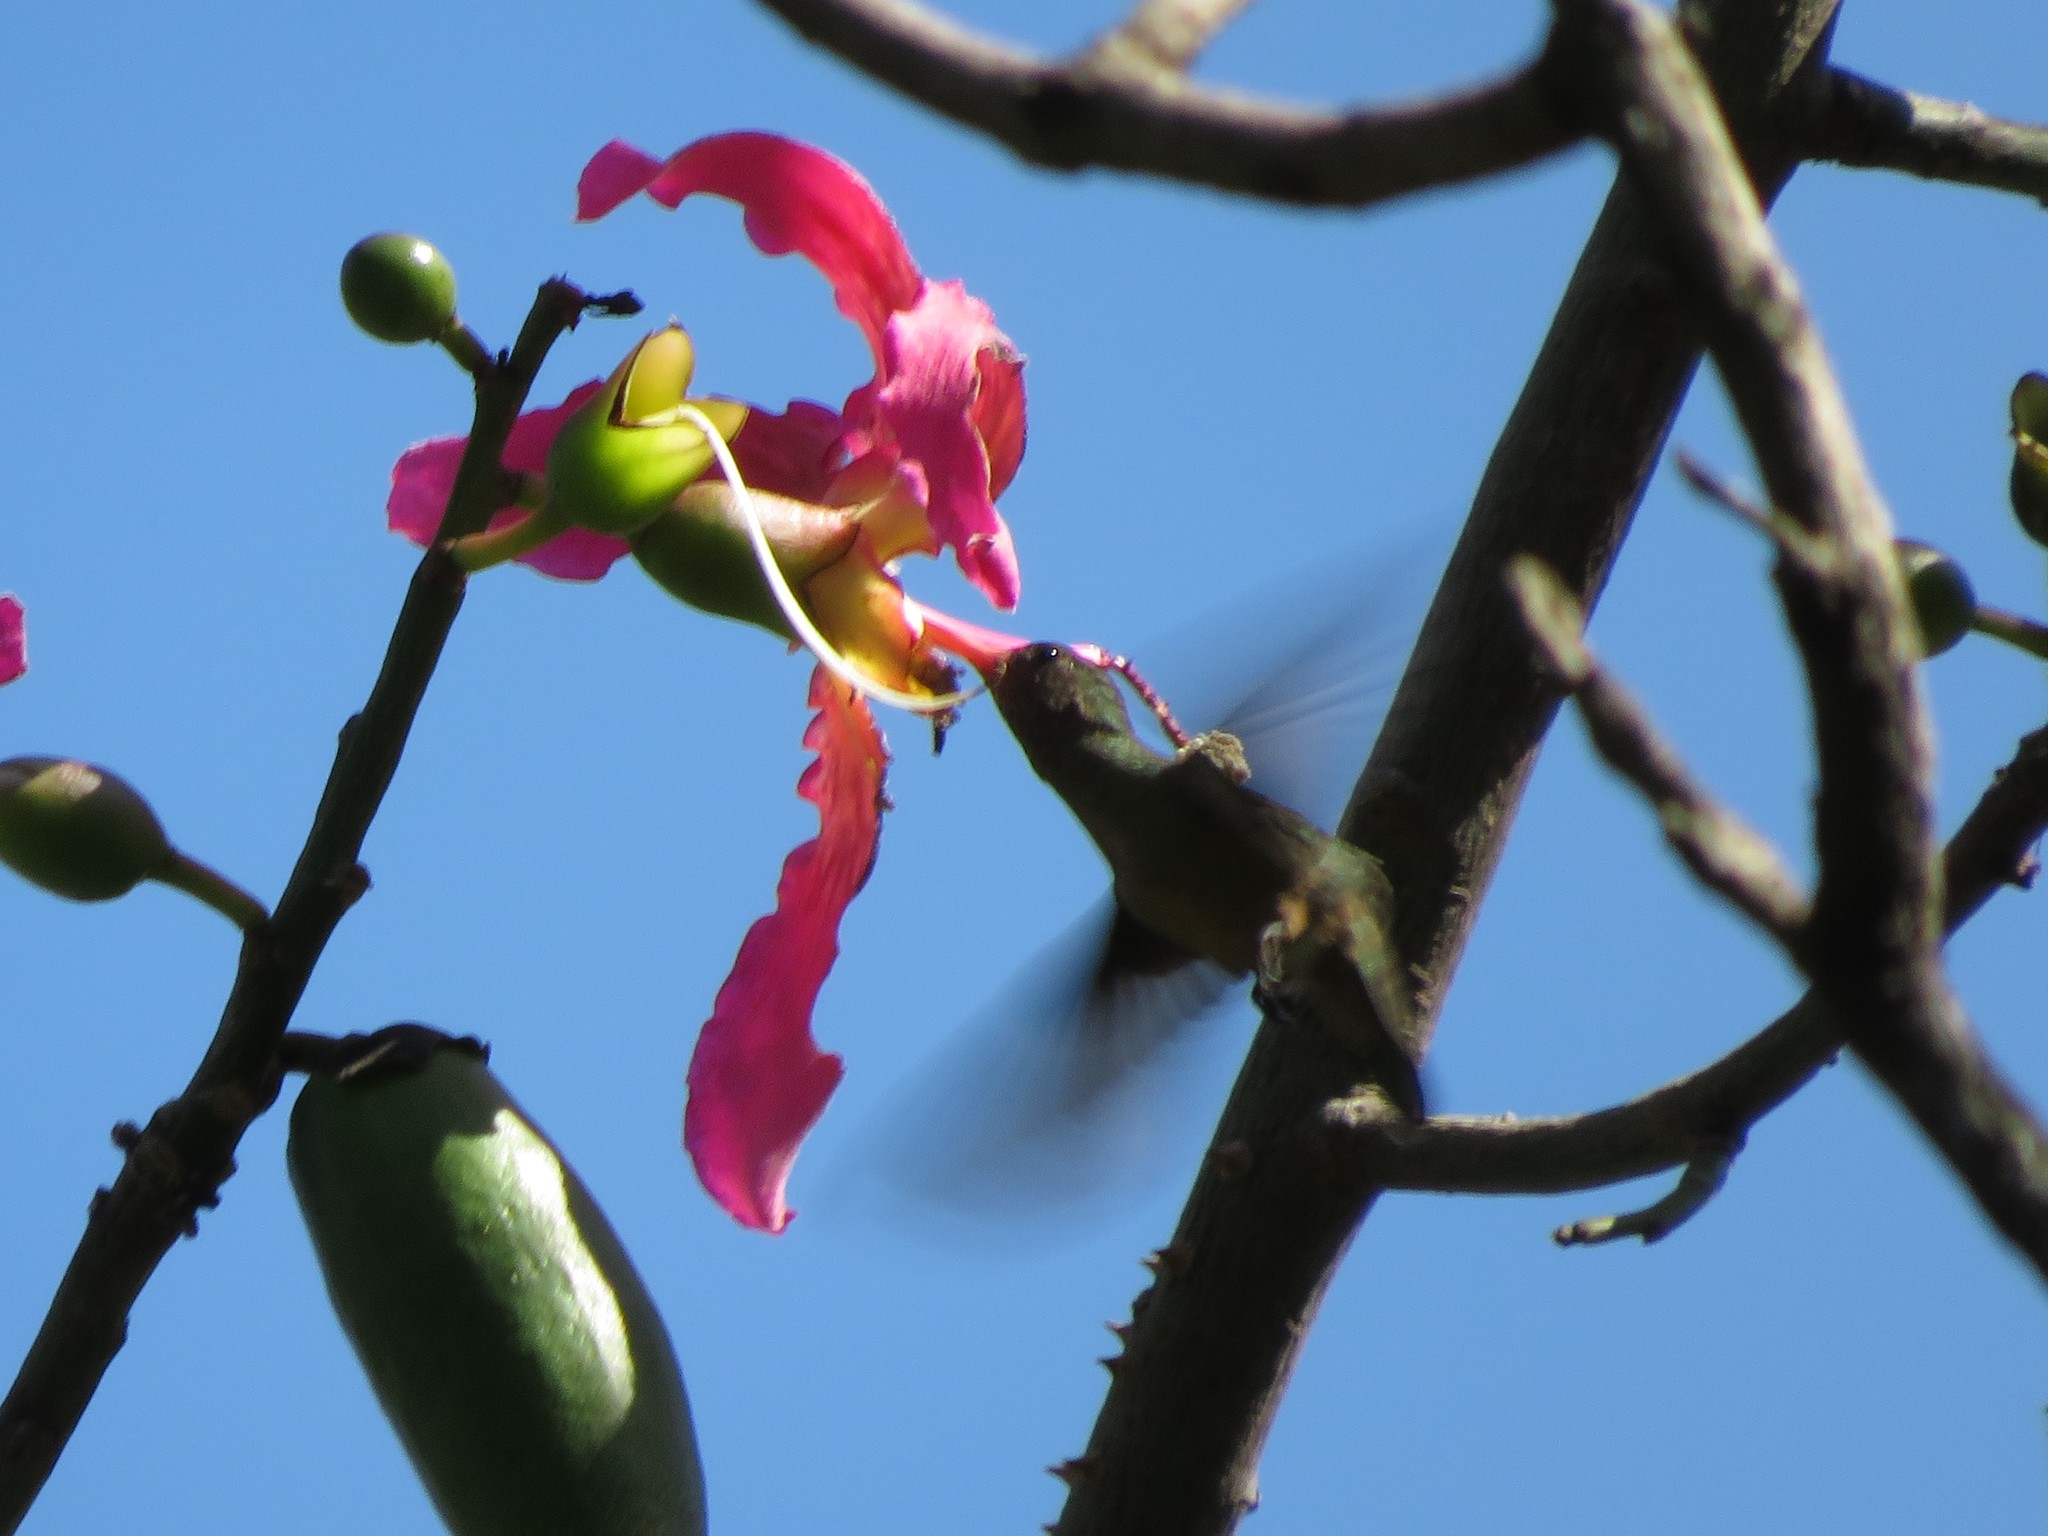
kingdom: Animalia
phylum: Chordata
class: Aves
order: Apodiformes
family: Trochilidae
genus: Hylocharis
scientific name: Hylocharis chrysura
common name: Gilded sapphire
